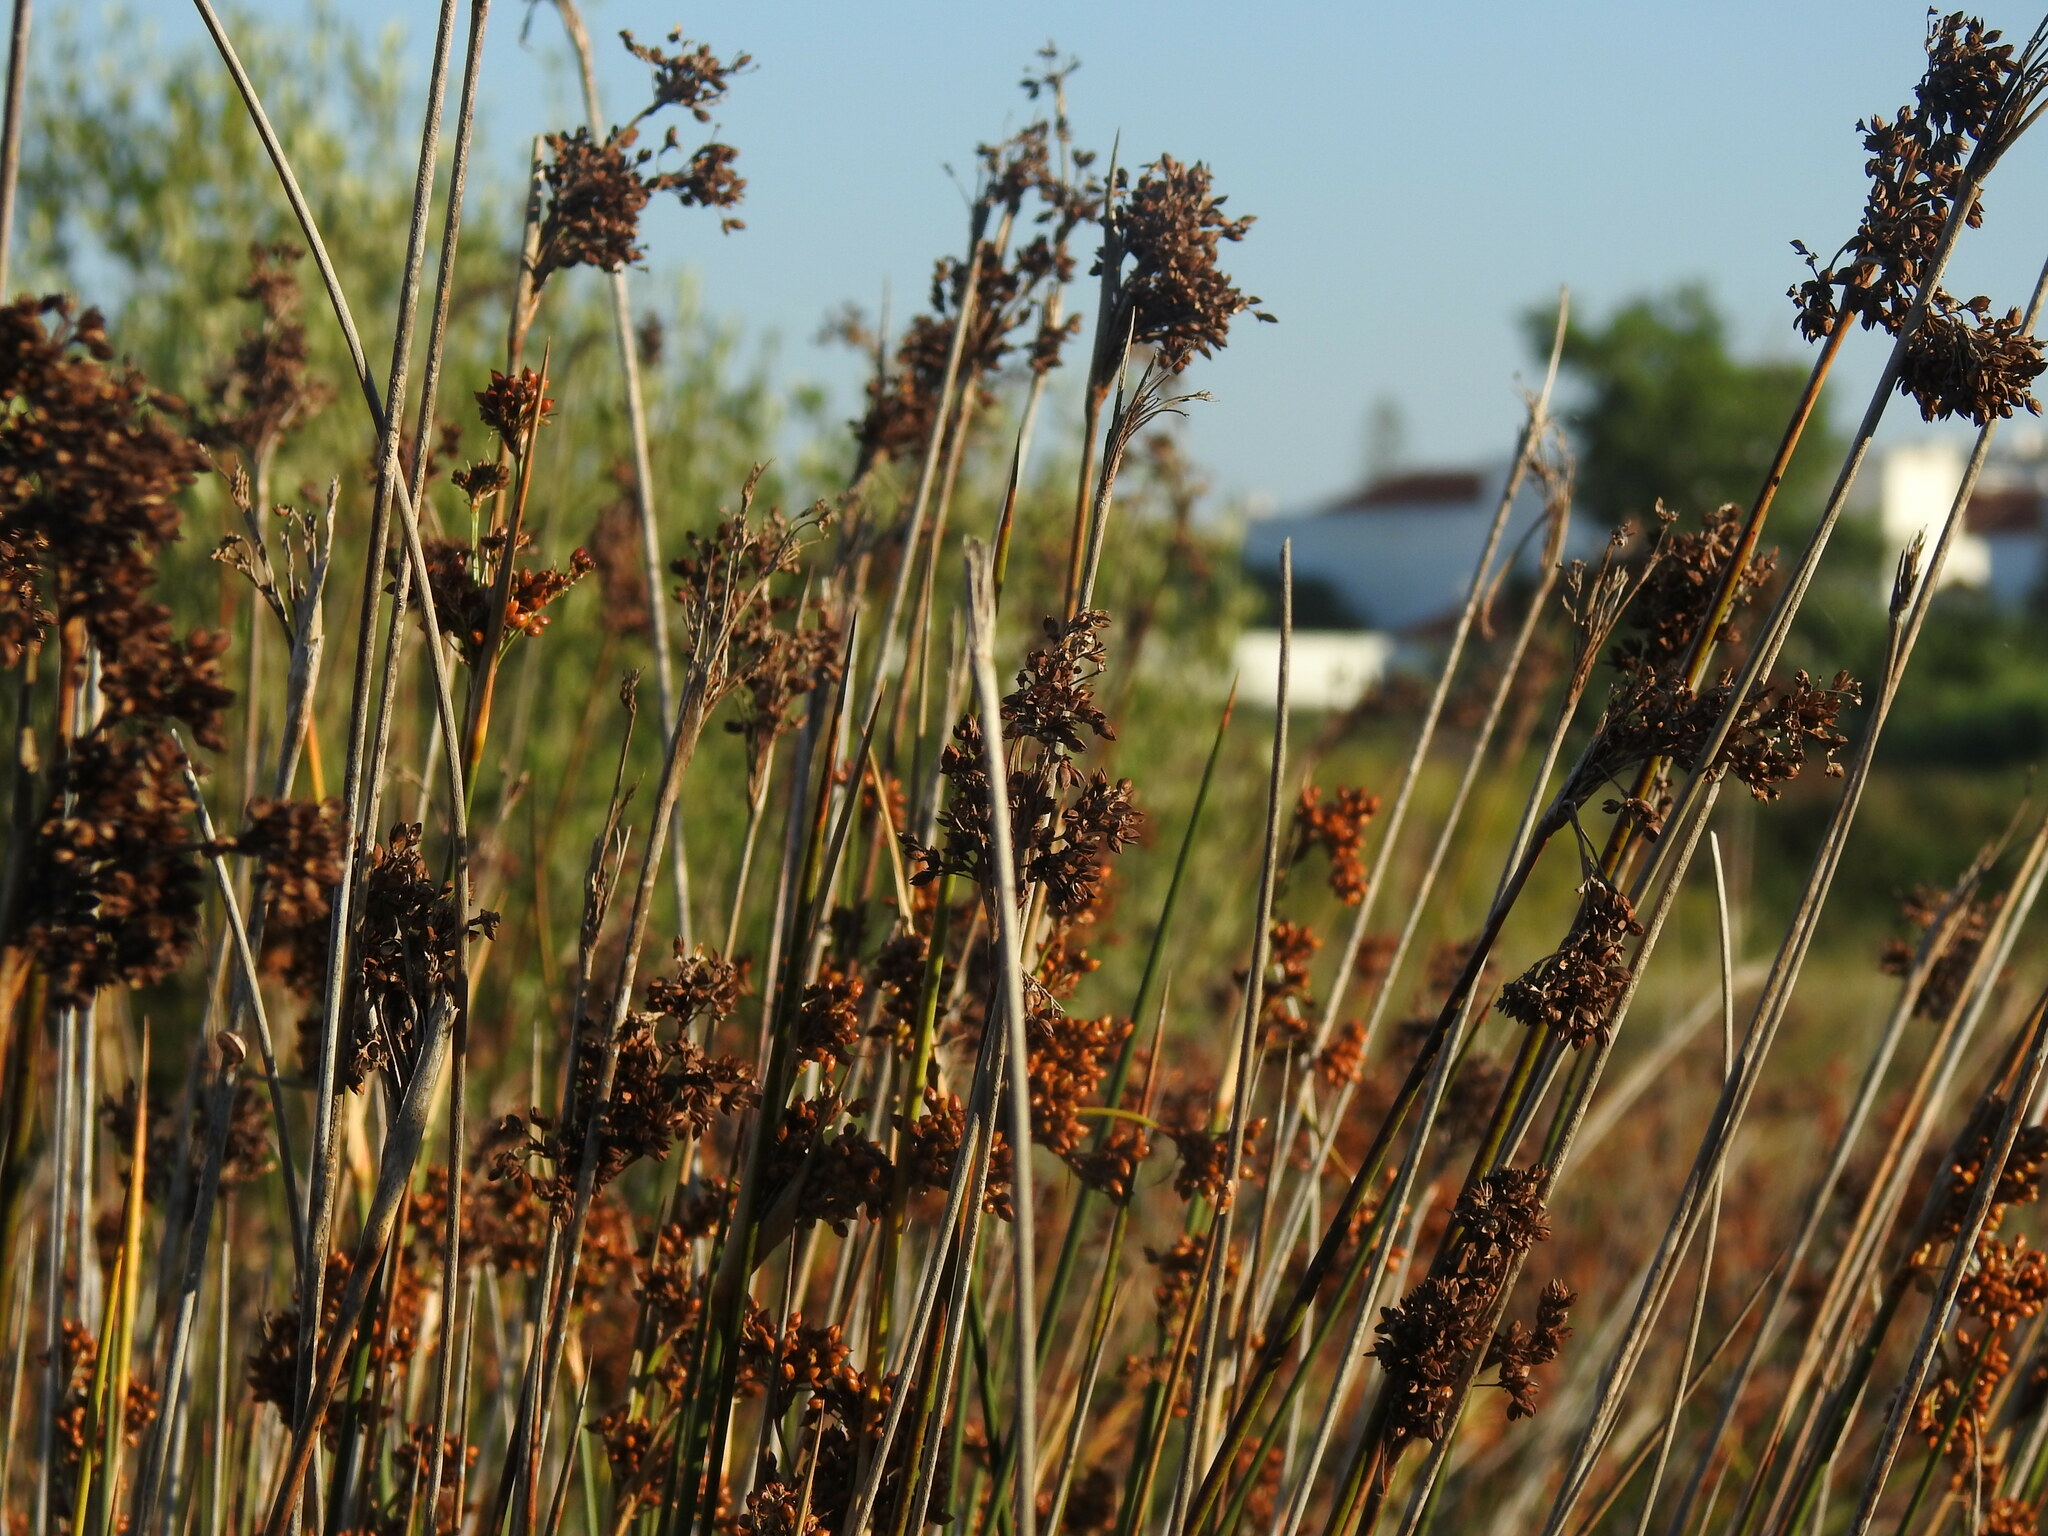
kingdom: Plantae
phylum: Tracheophyta
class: Liliopsida
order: Poales
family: Juncaceae
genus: Juncus
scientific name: Juncus acutus
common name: Sharp rush
